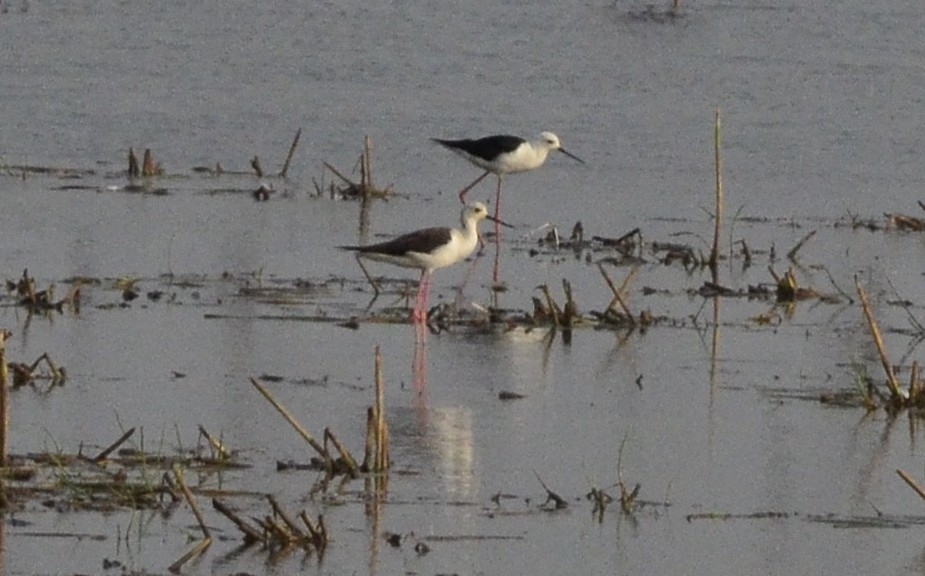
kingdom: Animalia
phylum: Chordata
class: Aves
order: Charadriiformes
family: Recurvirostridae
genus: Himantopus
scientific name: Himantopus himantopus
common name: Black-winged stilt
